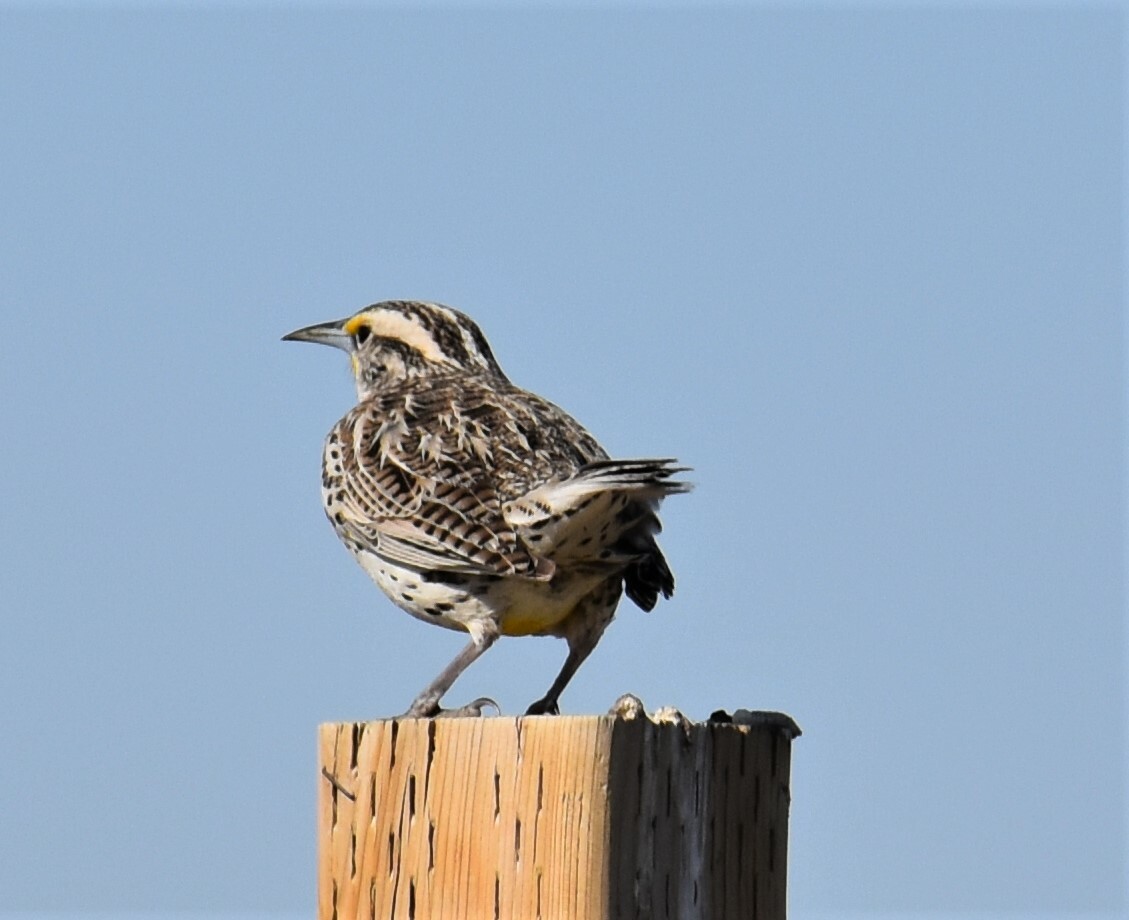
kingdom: Animalia
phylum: Chordata
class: Aves
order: Passeriformes
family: Icteridae
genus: Sturnella
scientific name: Sturnella neglecta
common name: Western meadowlark
